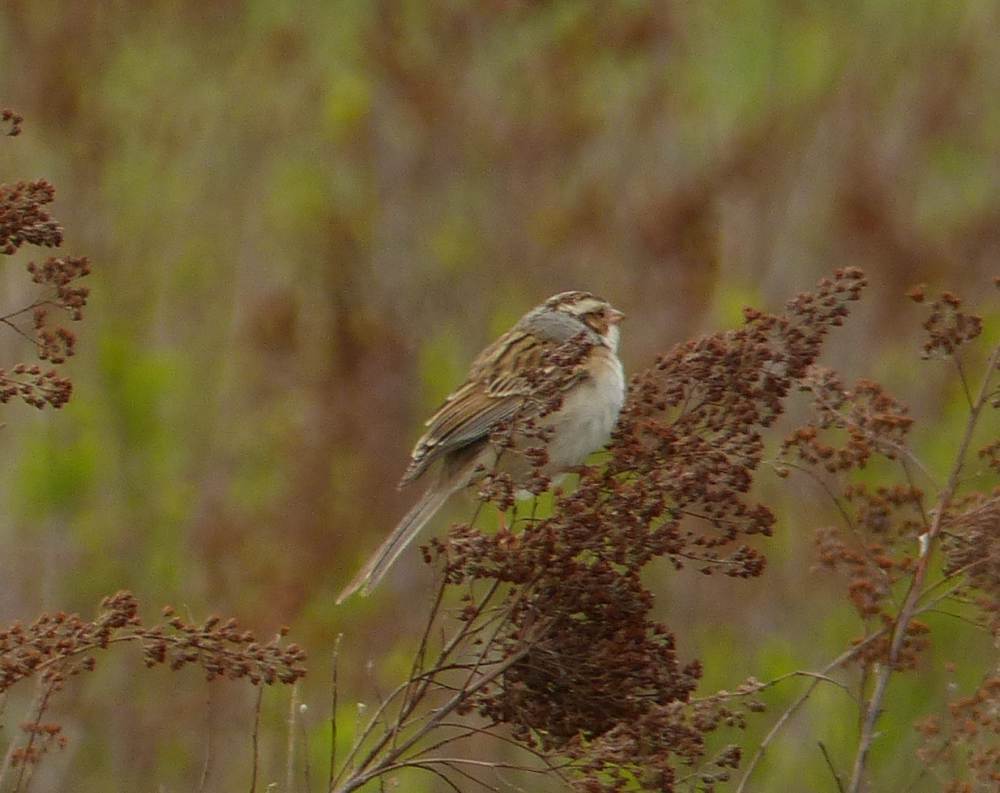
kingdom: Animalia
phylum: Chordata
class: Aves
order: Passeriformes
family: Passerellidae
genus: Spizella
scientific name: Spizella pallida
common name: Clay-colored sparrow
